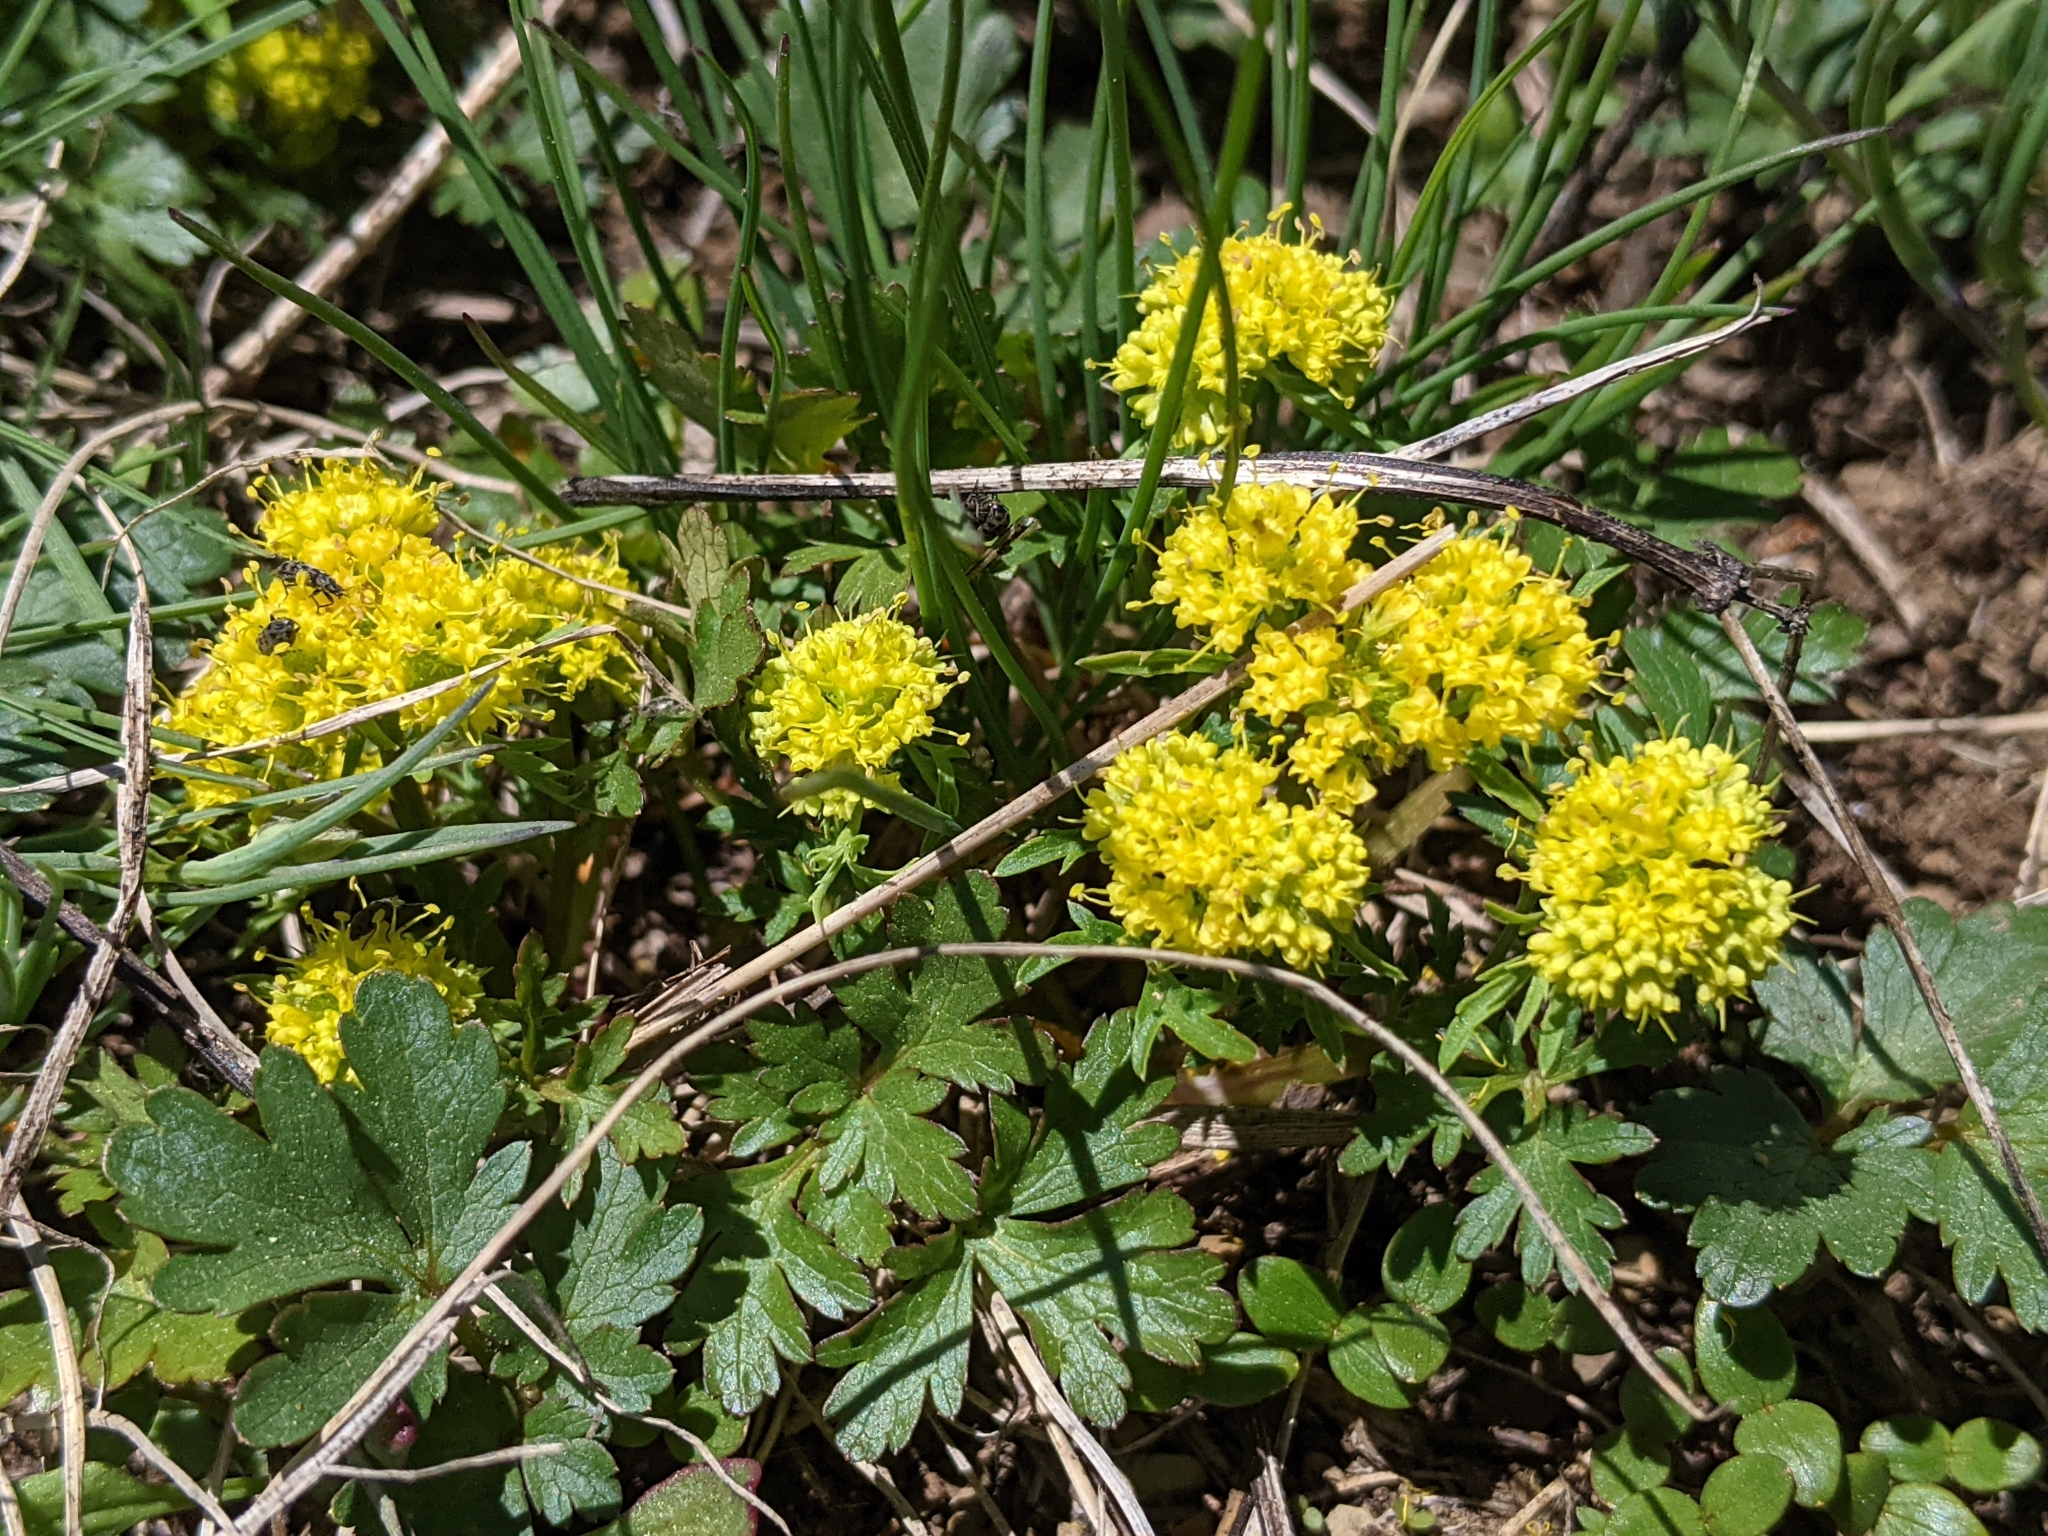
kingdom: Plantae
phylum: Tracheophyta
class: Magnoliopsida
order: Apiales
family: Apiaceae
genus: Sanicula
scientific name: Sanicula graveolens
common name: Sierra sanicle
